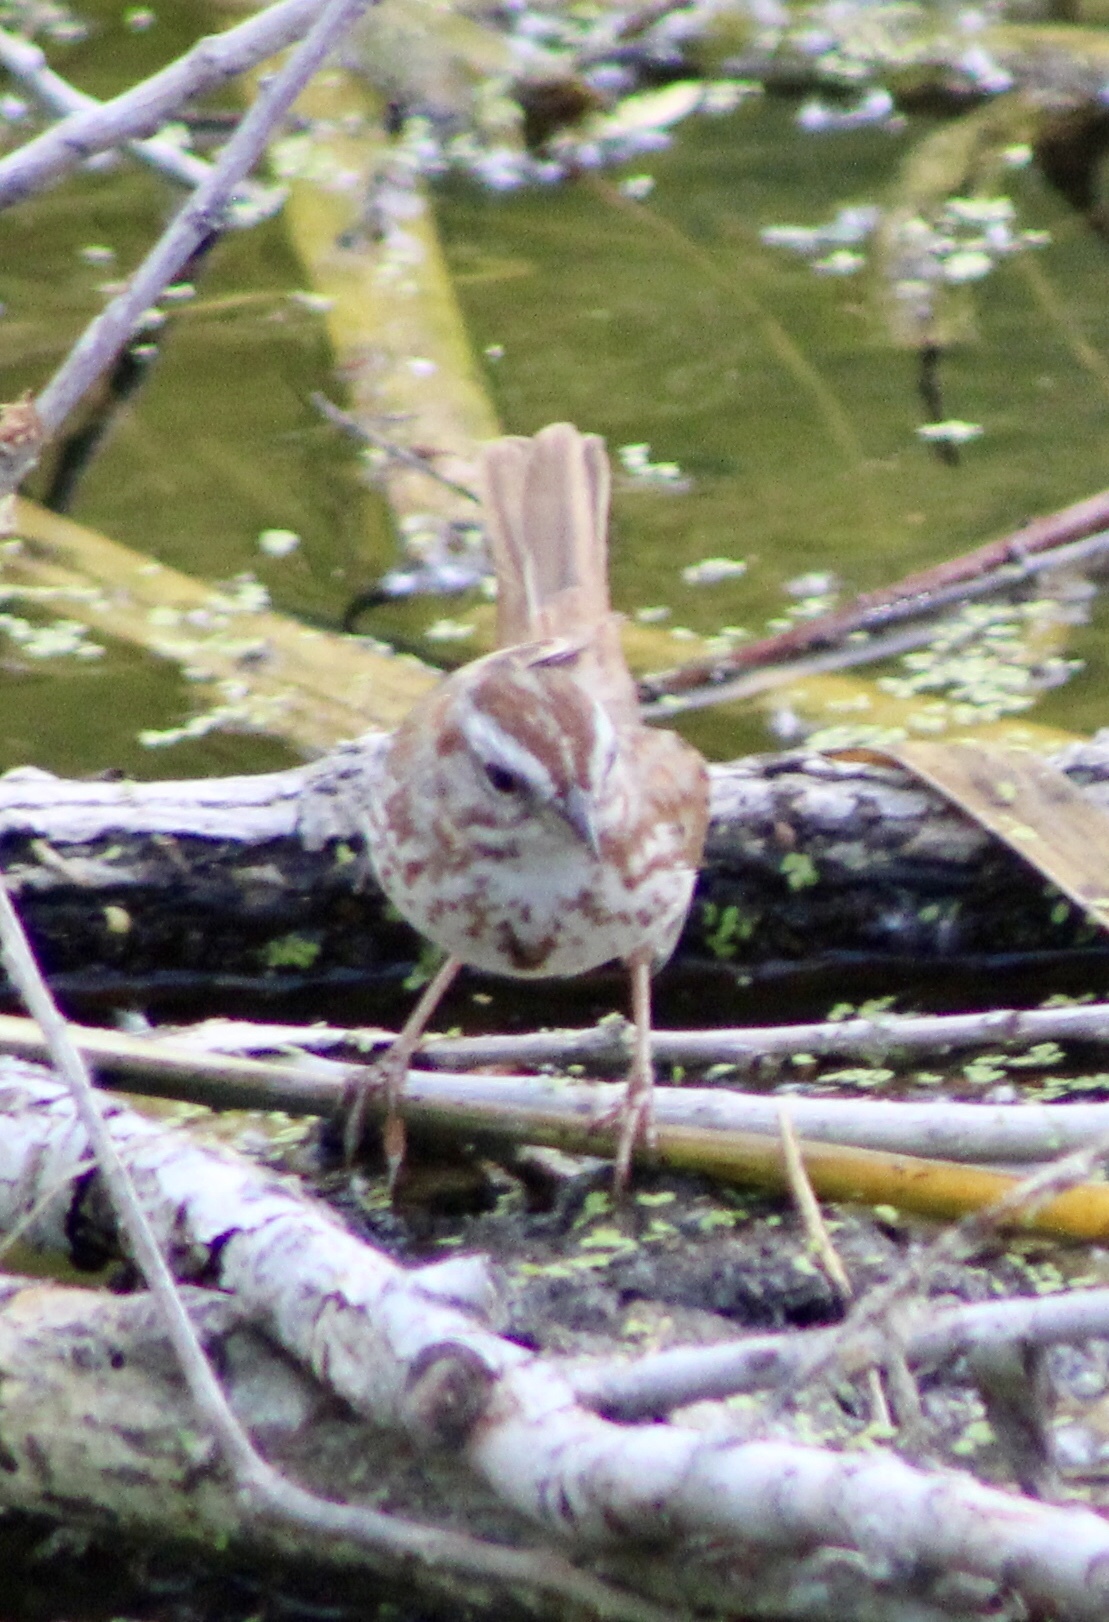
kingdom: Animalia
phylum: Chordata
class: Aves
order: Passeriformes
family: Passerellidae
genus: Melospiza
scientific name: Melospiza melodia
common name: Song sparrow
